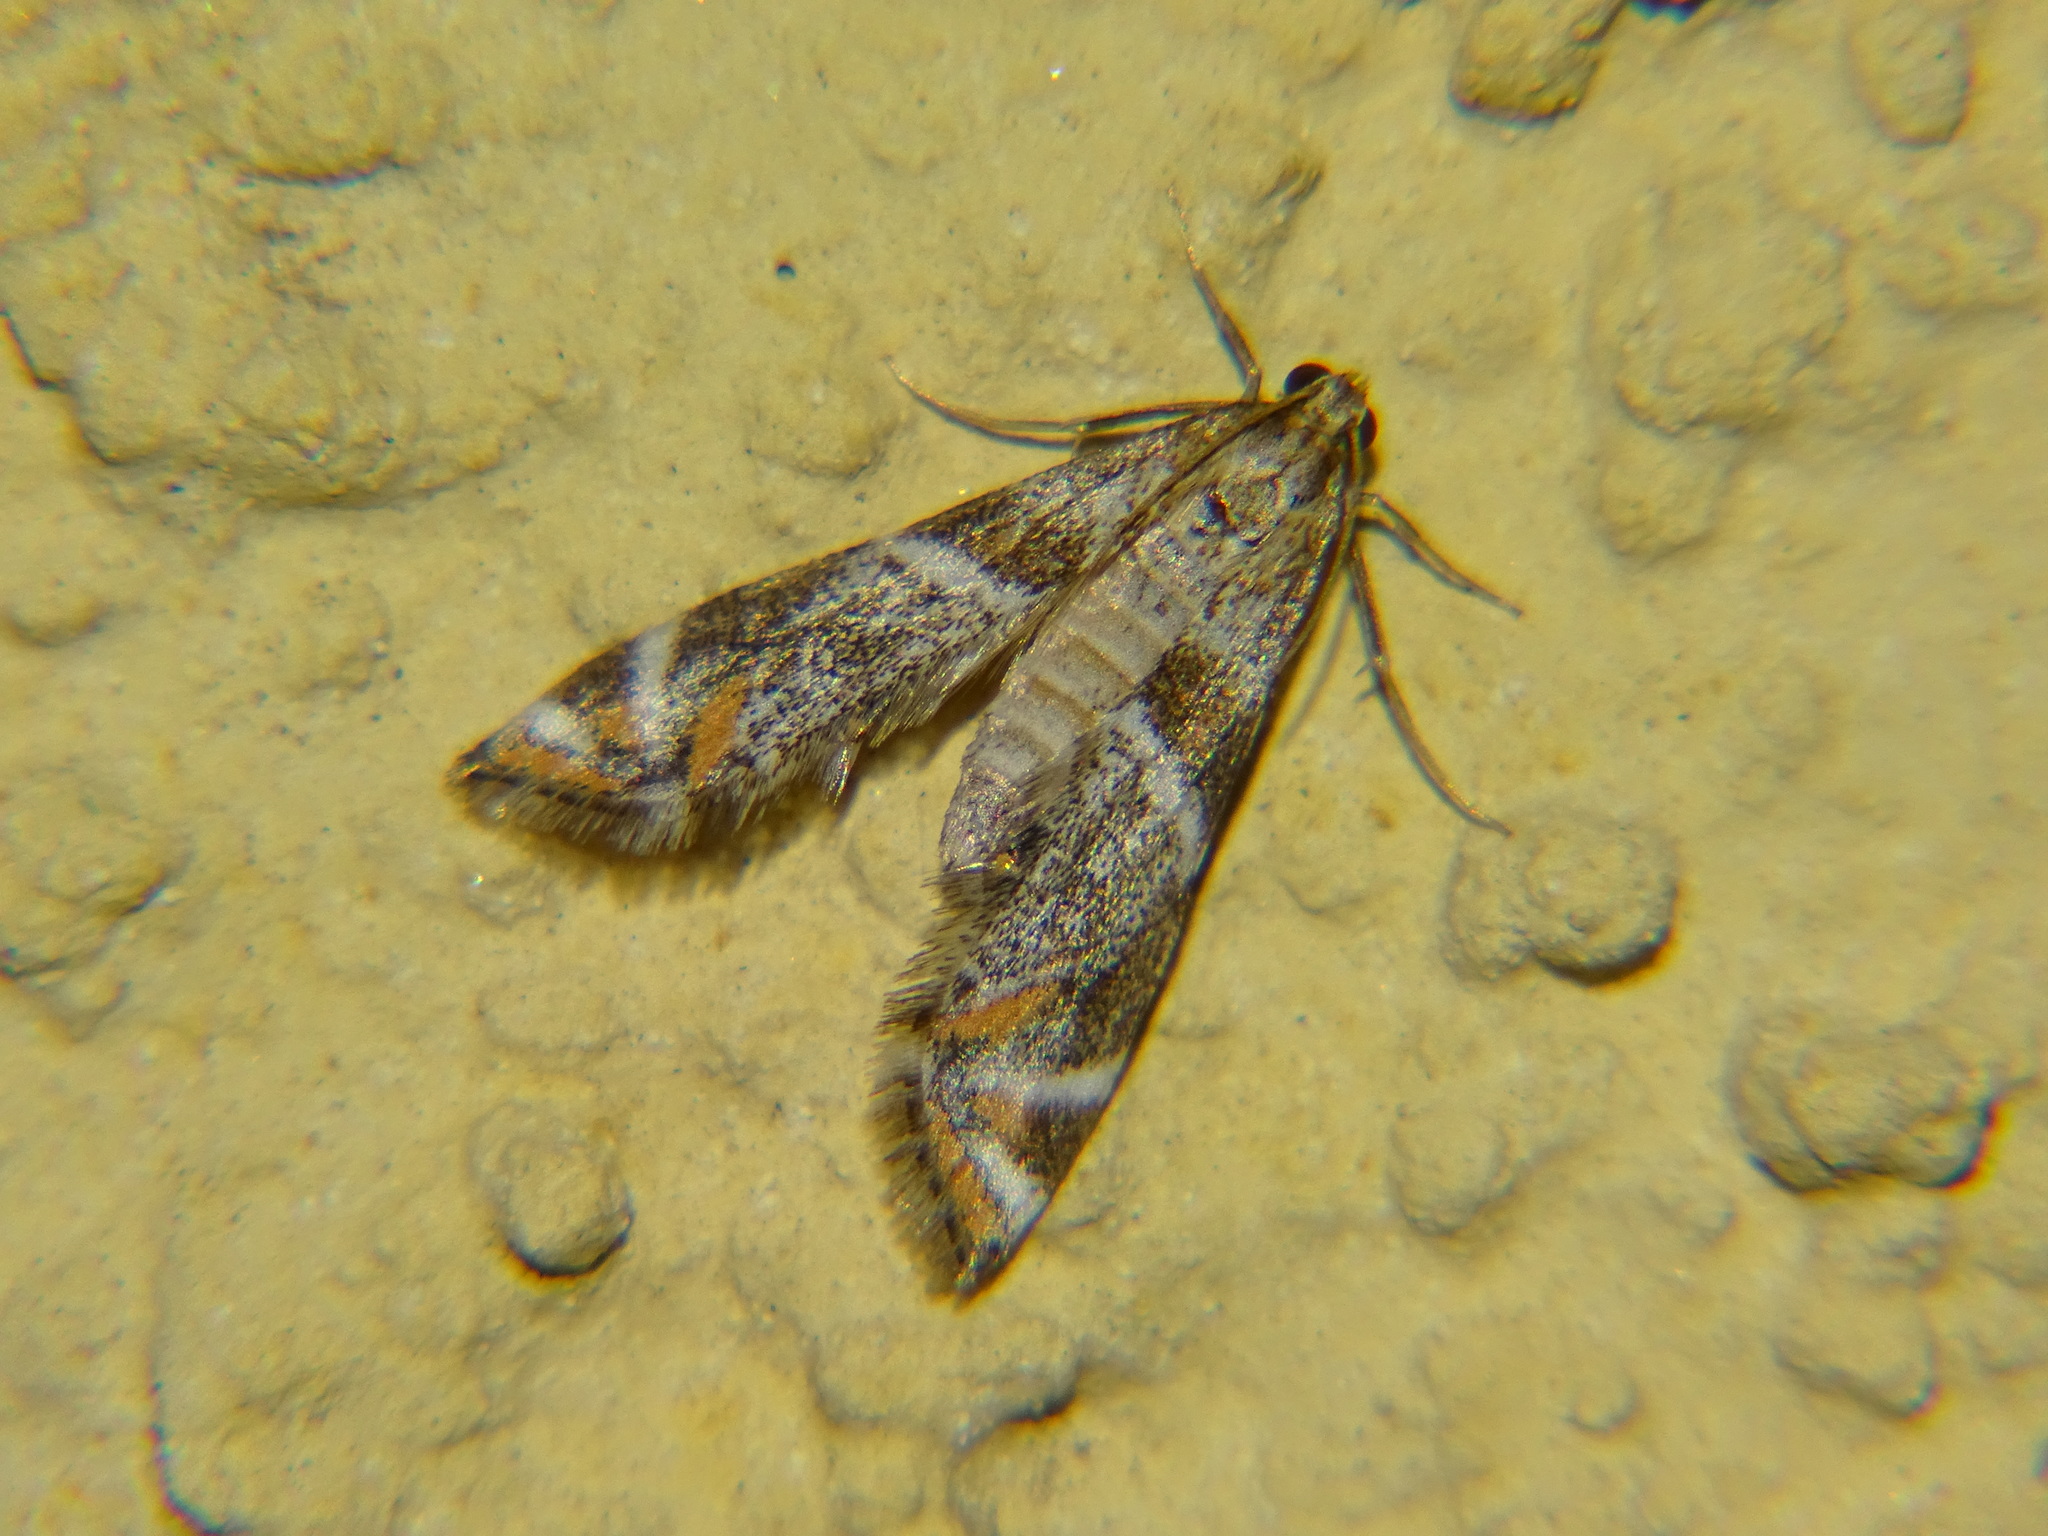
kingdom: Animalia
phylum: Arthropoda
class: Insecta
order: Lepidoptera
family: Crambidae
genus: Petrophila
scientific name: Petrophila jaliscalis
